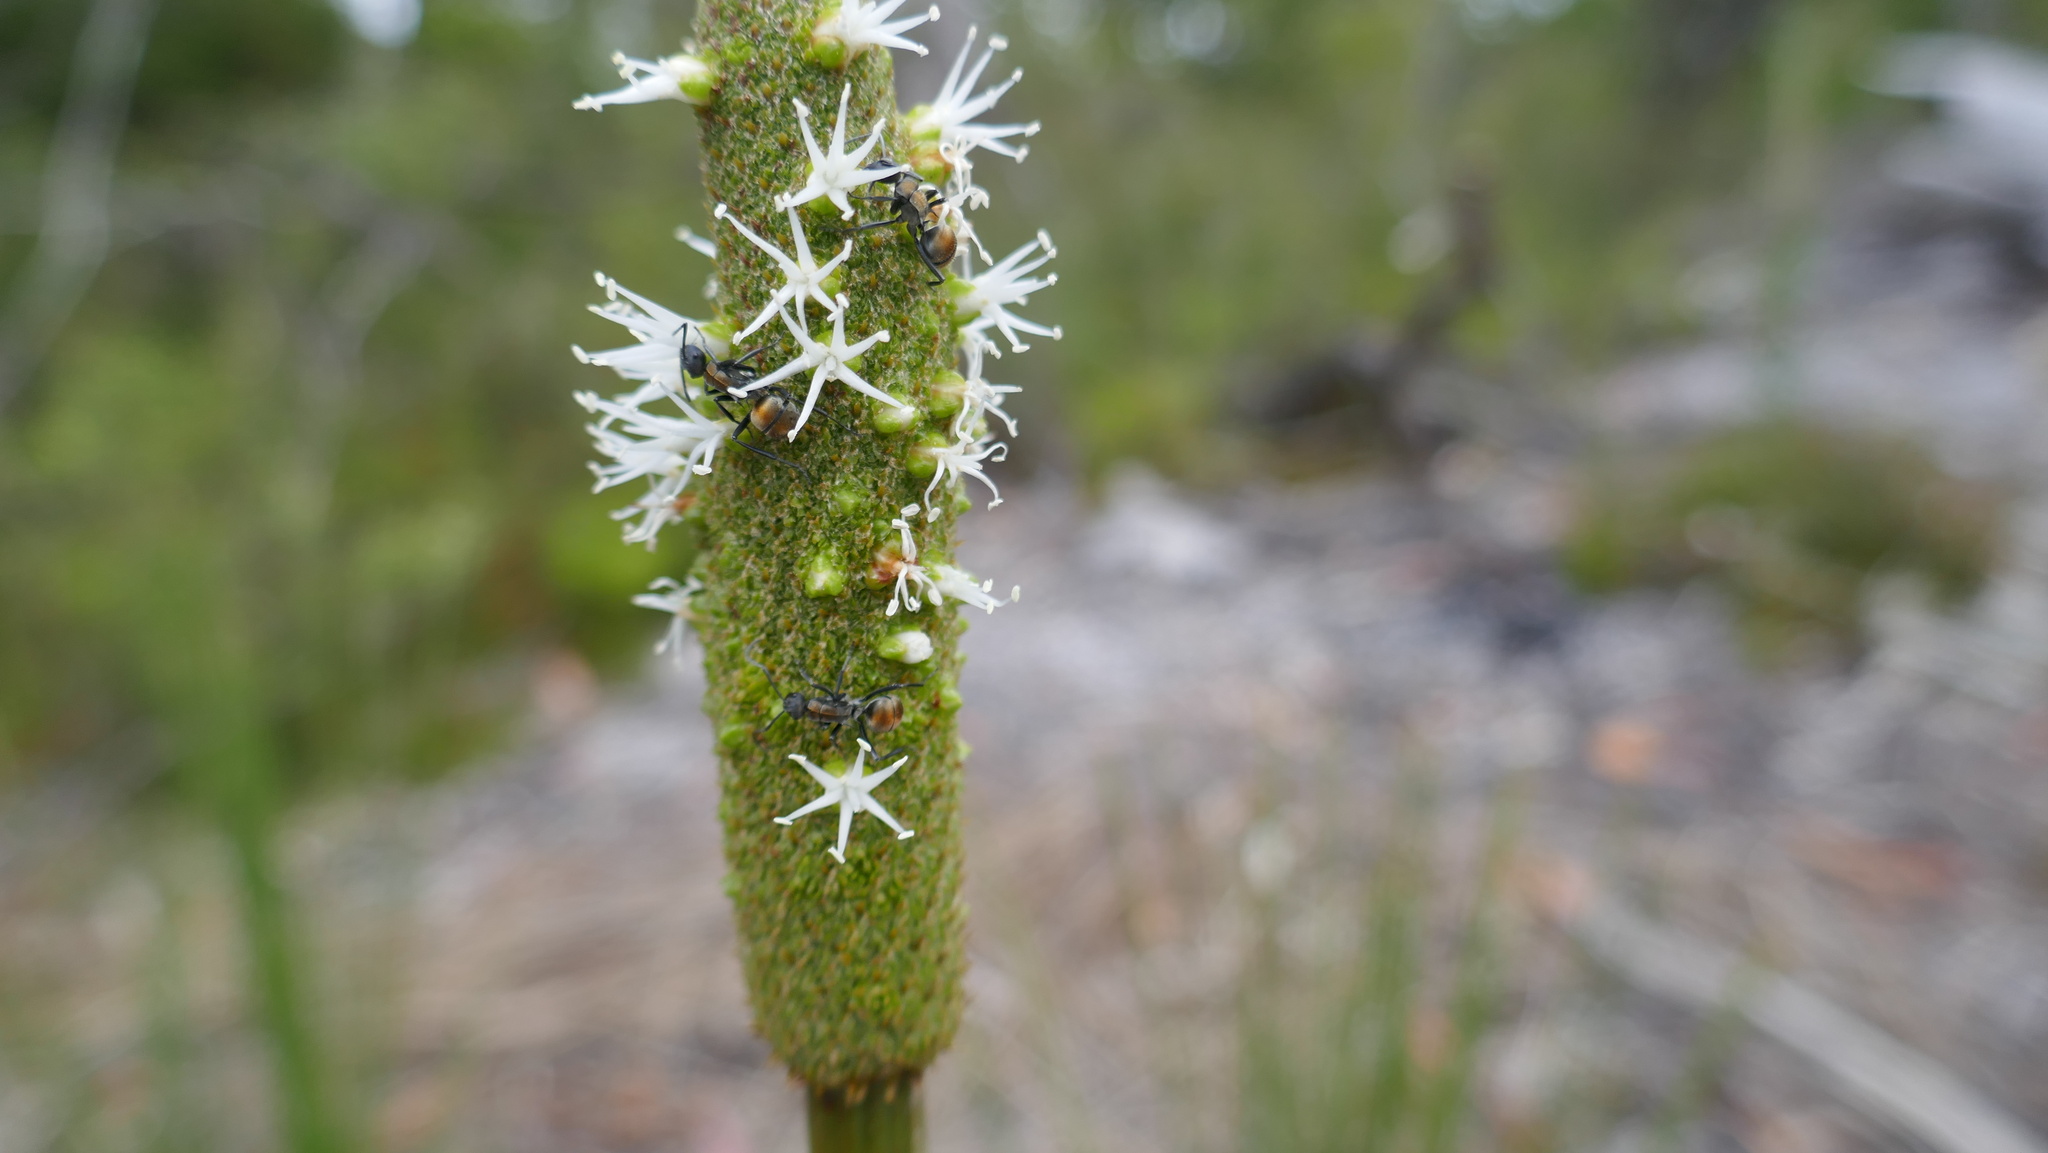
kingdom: Plantae
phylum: Tracheophyta
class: Liliopsida
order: Asparagales
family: Asphodelaceae
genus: Xanthorrhoea
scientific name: Xanthorrhoea johnsonii
